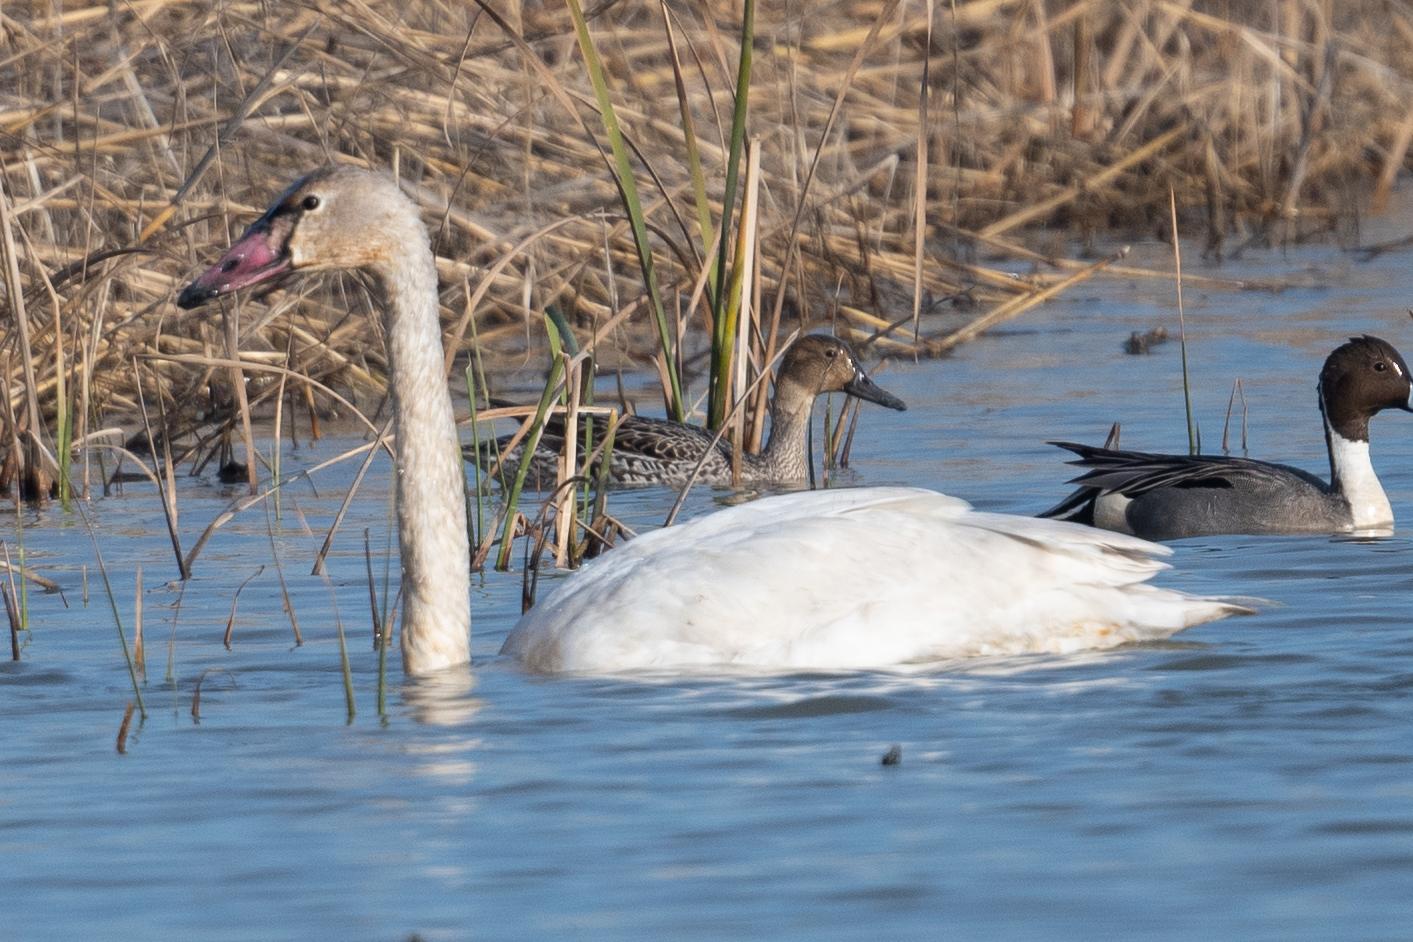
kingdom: Animalia
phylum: Chordata
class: Aves
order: Anseriformes
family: Anatidae
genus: Cygnus
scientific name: Cygnus columbianus
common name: Tundra swan
